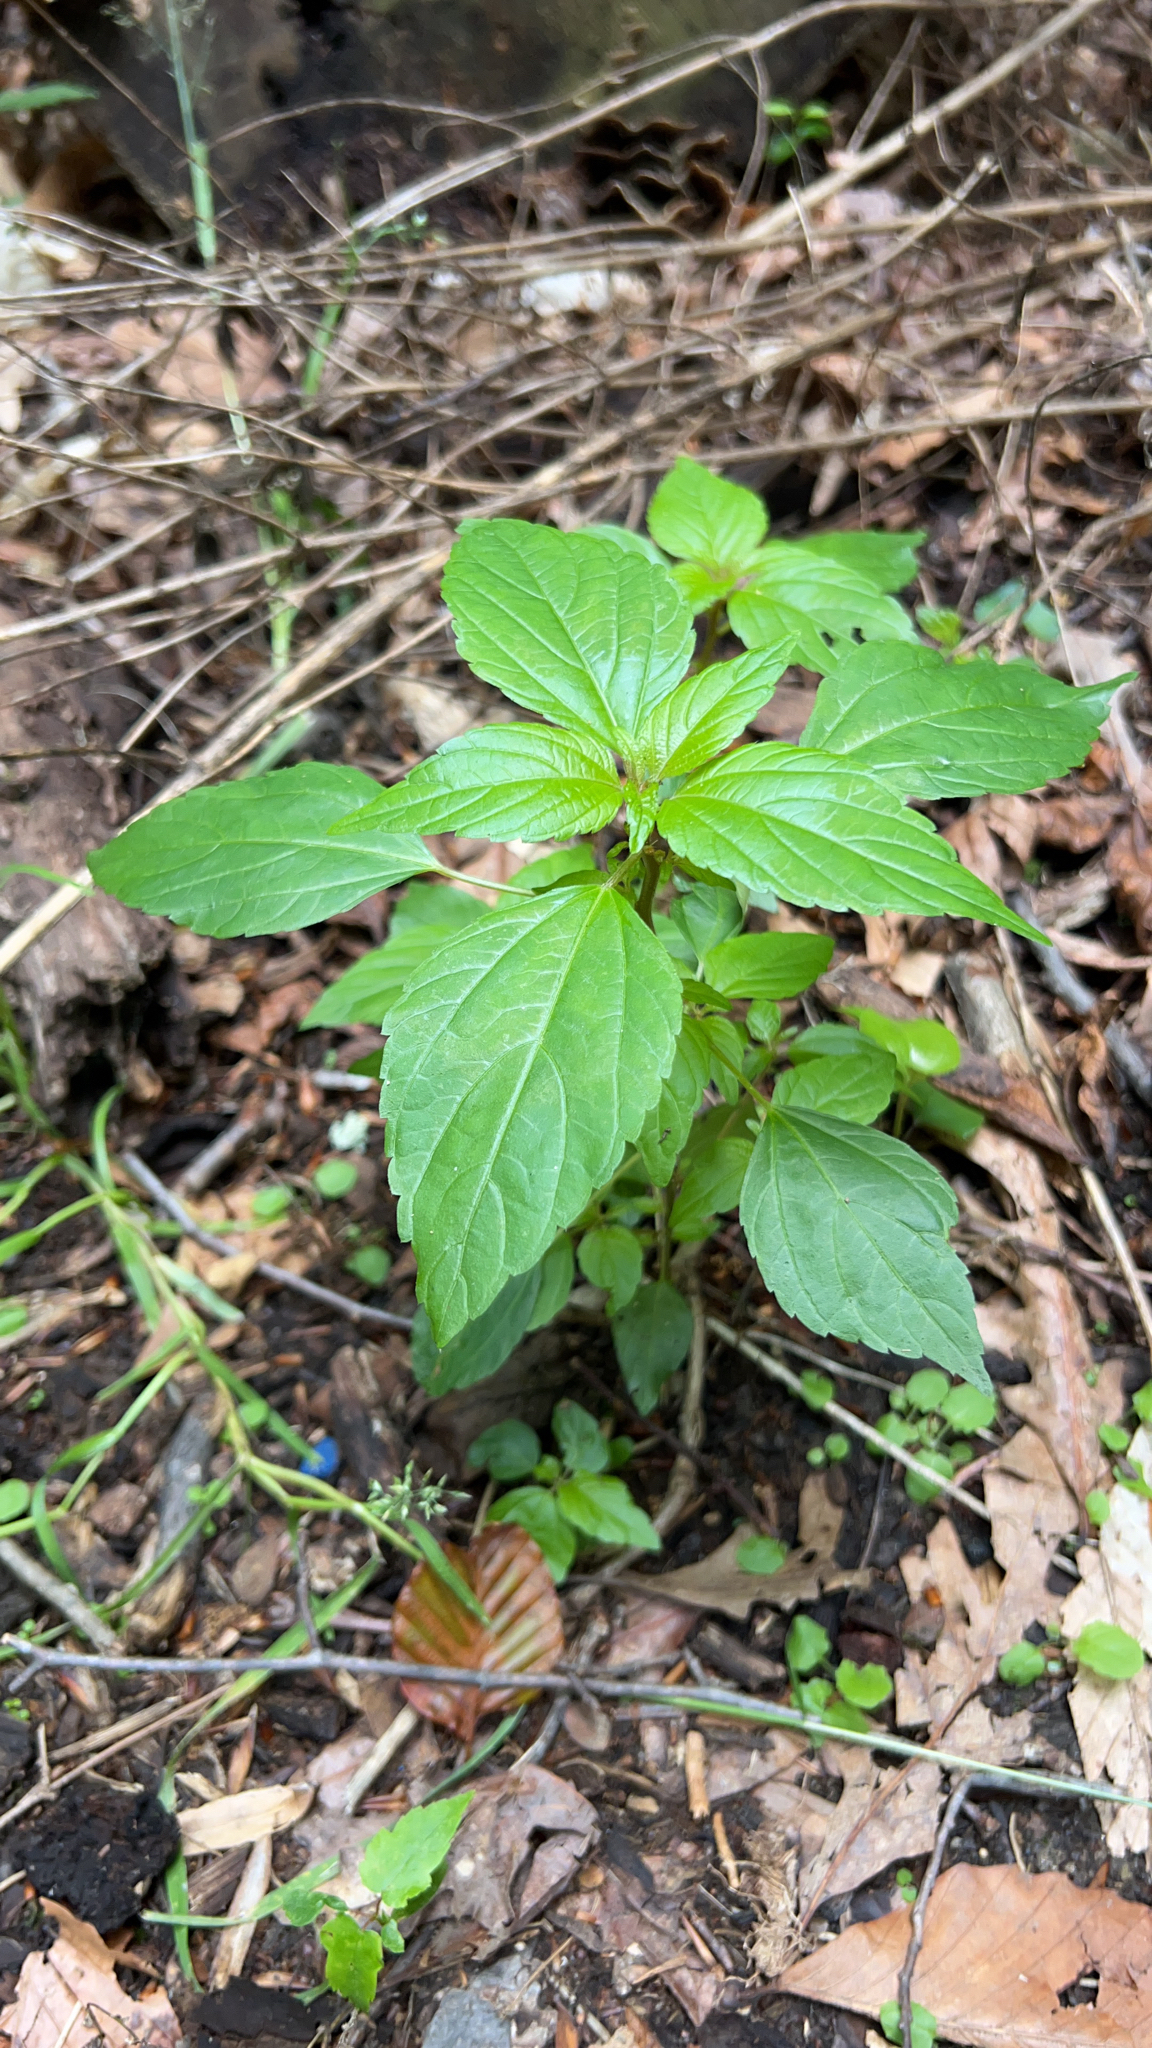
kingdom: Plantae
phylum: Tracheophyta
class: Magnoliopsida
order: Malpighiales
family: Euphorbiaceae
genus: Acalypha
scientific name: Acalypha rhomboidea
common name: Rhombic copperleaf
